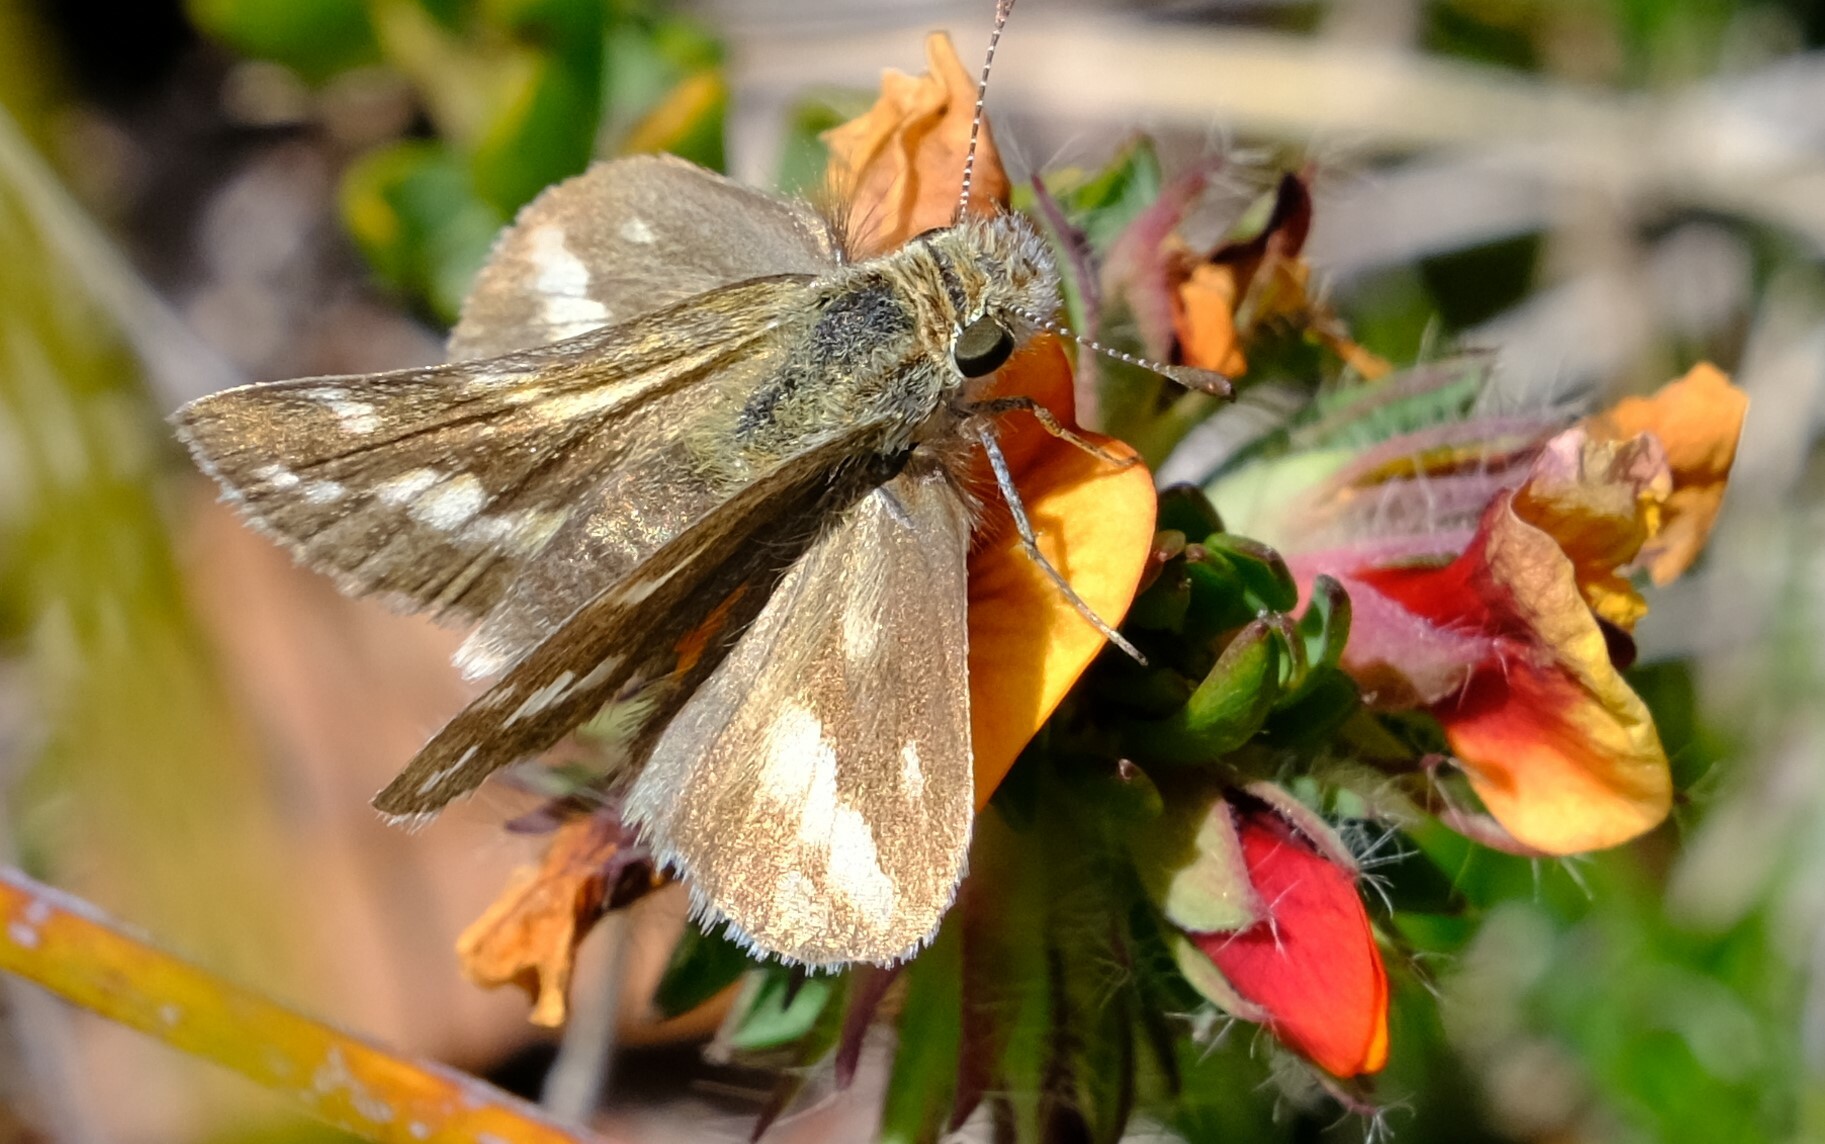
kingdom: Animalia
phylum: Arthropoda
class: Insecta
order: Lepidoptera
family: Hesperiidae
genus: Taractrocera
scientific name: Taractrocera papyria
